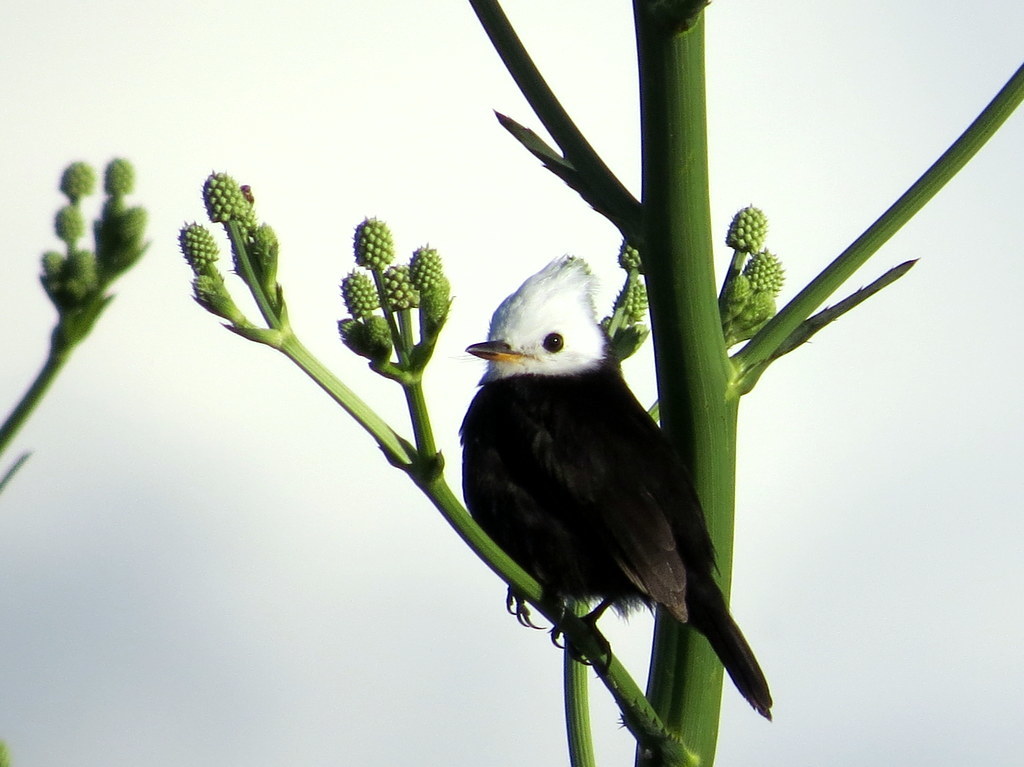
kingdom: Animalia
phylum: Chordata
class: Aves
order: Passeriformes
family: Tyrannidae
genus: Arundinicola
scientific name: Arundinicola leucocephala
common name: White-headed marsh tyrant
